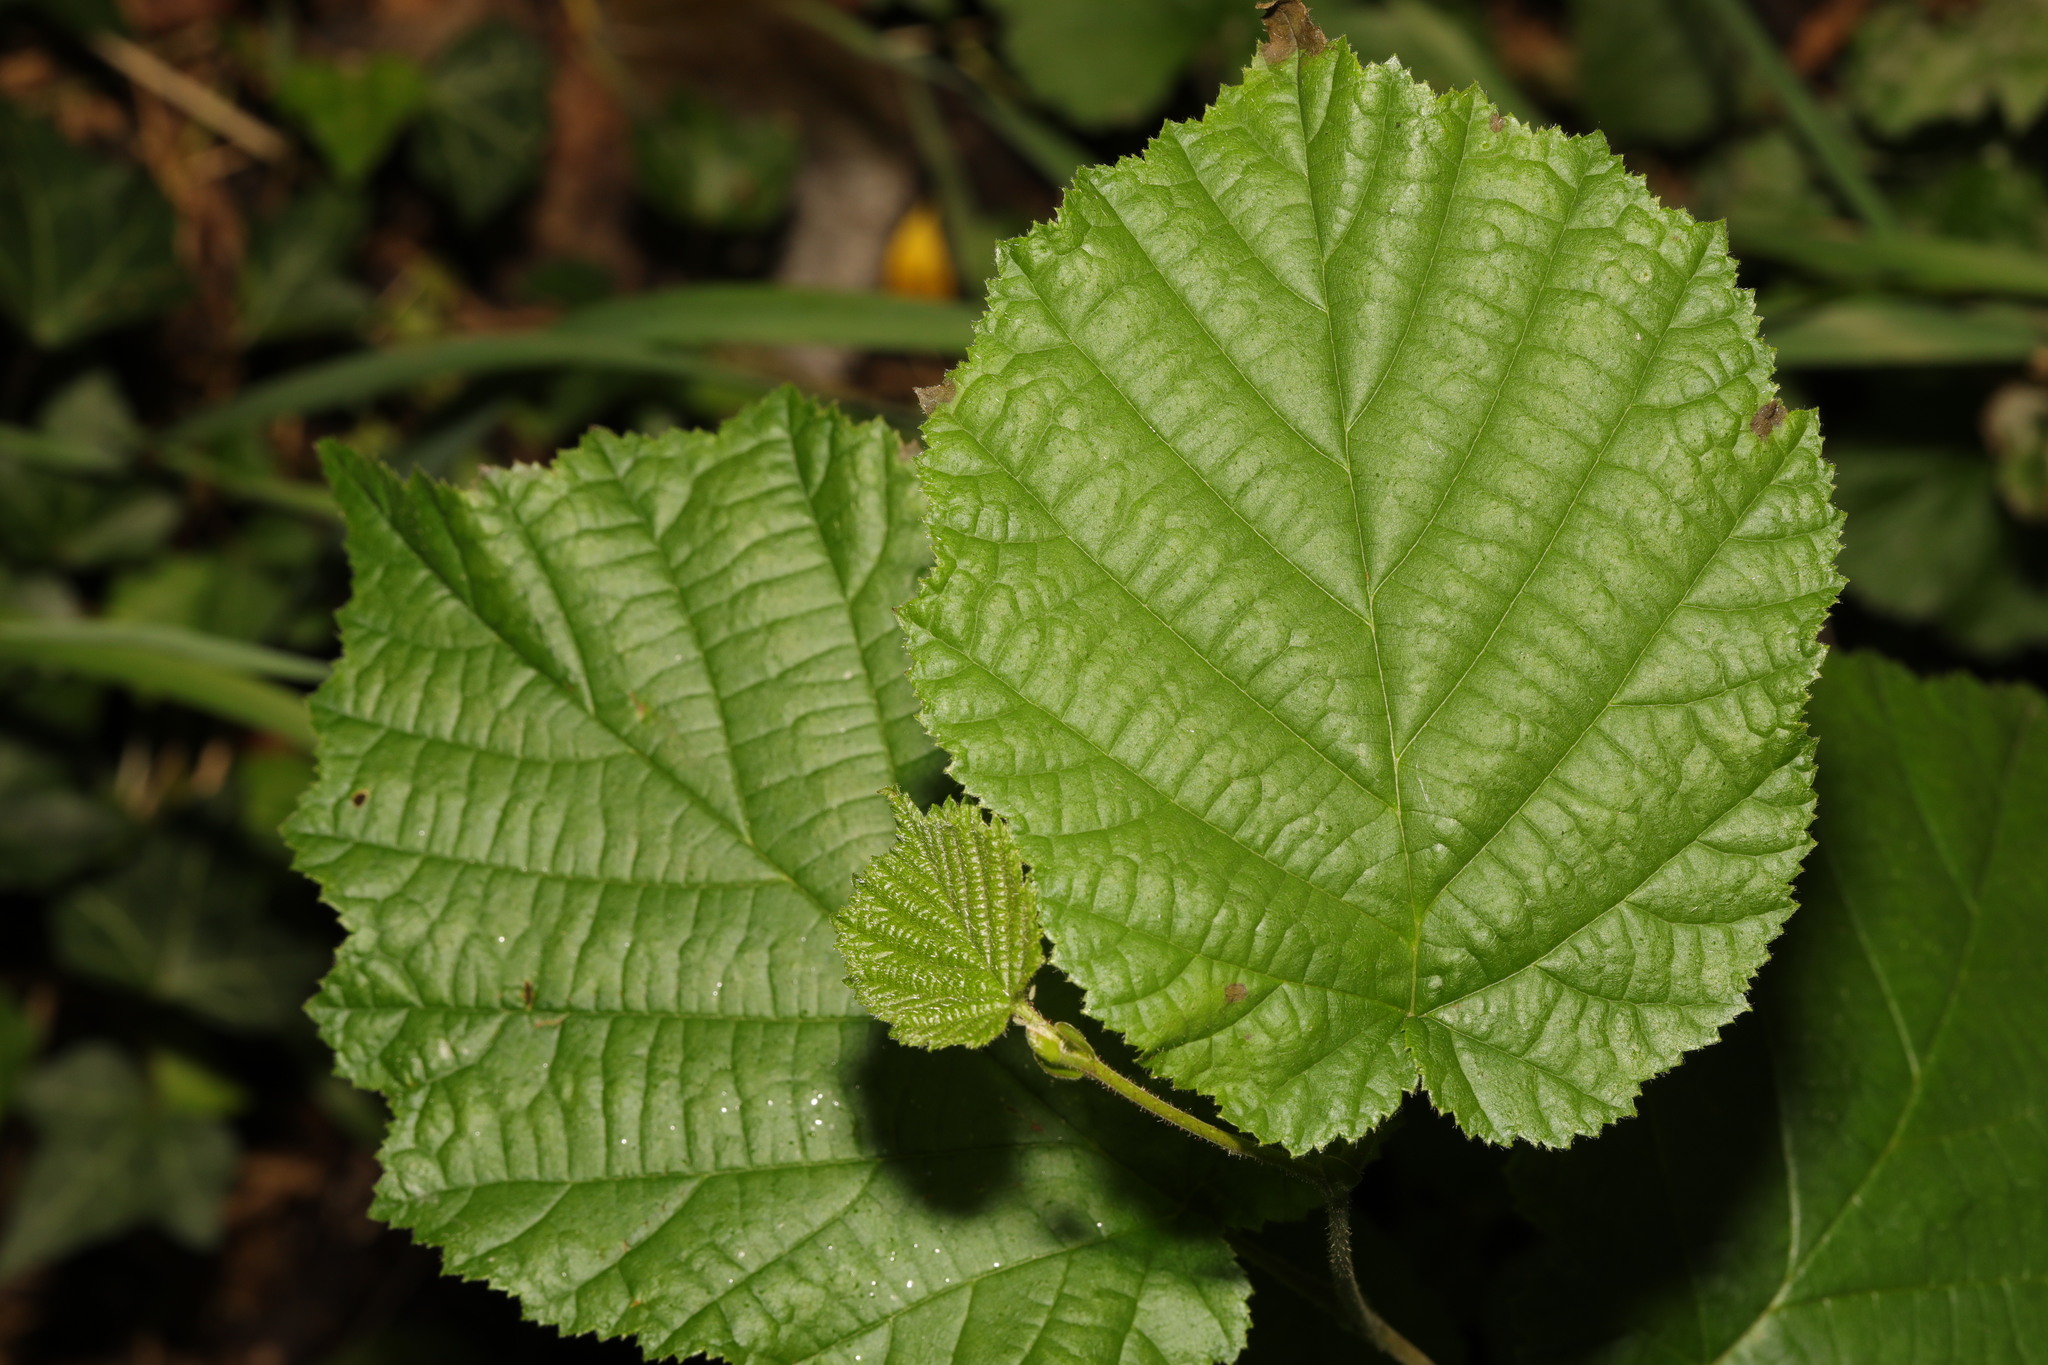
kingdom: Plantae
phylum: Tracheophyta
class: Magnoliopsida
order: Fagales
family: Betulaceae
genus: Corylus
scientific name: Corylus avellana
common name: European hazel
